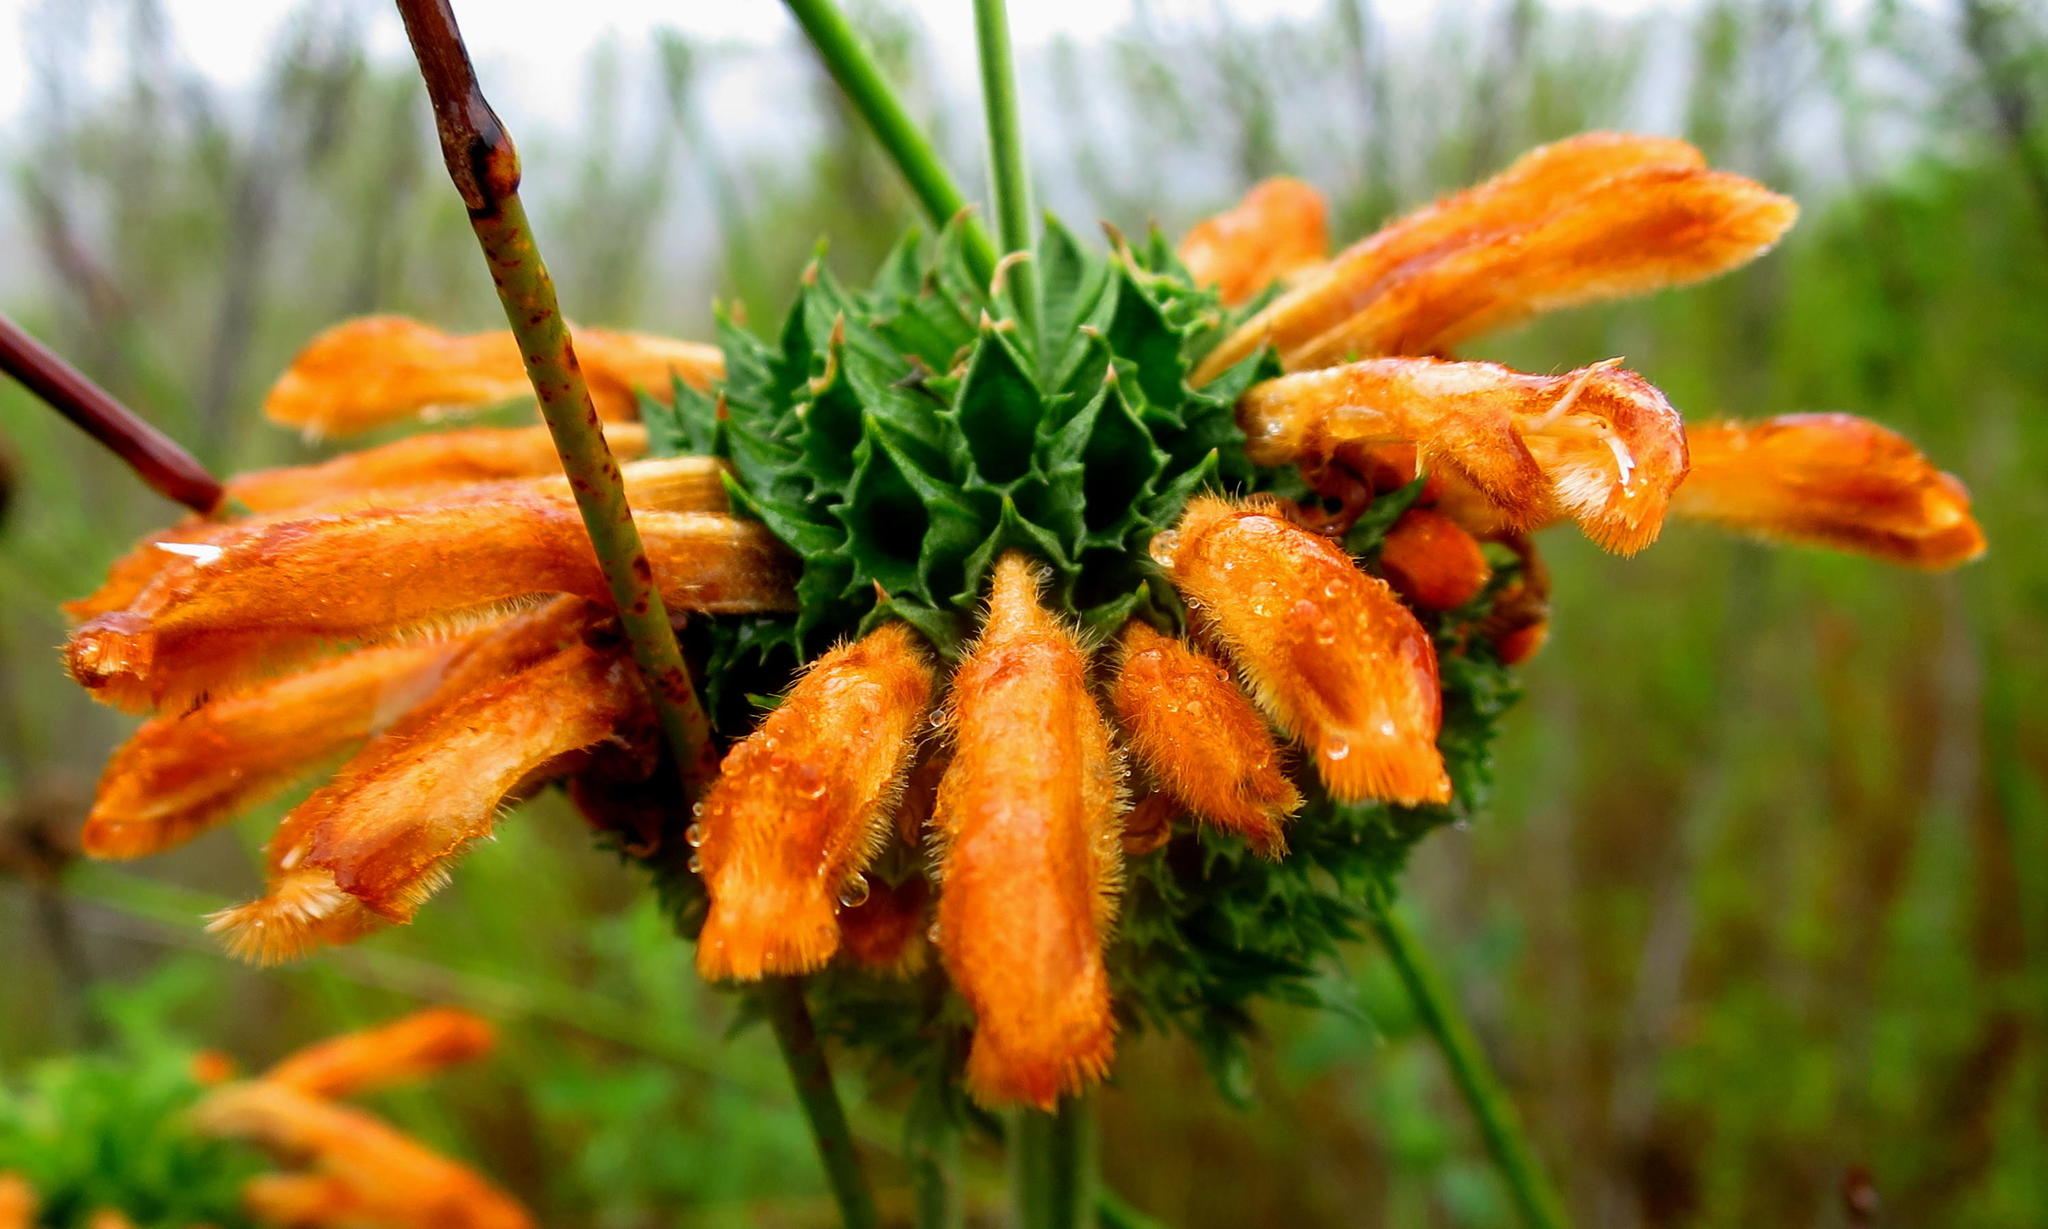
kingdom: Plantae
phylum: Tracheophyta
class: Magnoliopsida
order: Lamiales
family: Lamiaceae
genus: Leonotis
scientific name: Leonotis leonurus
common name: Lion's ear
